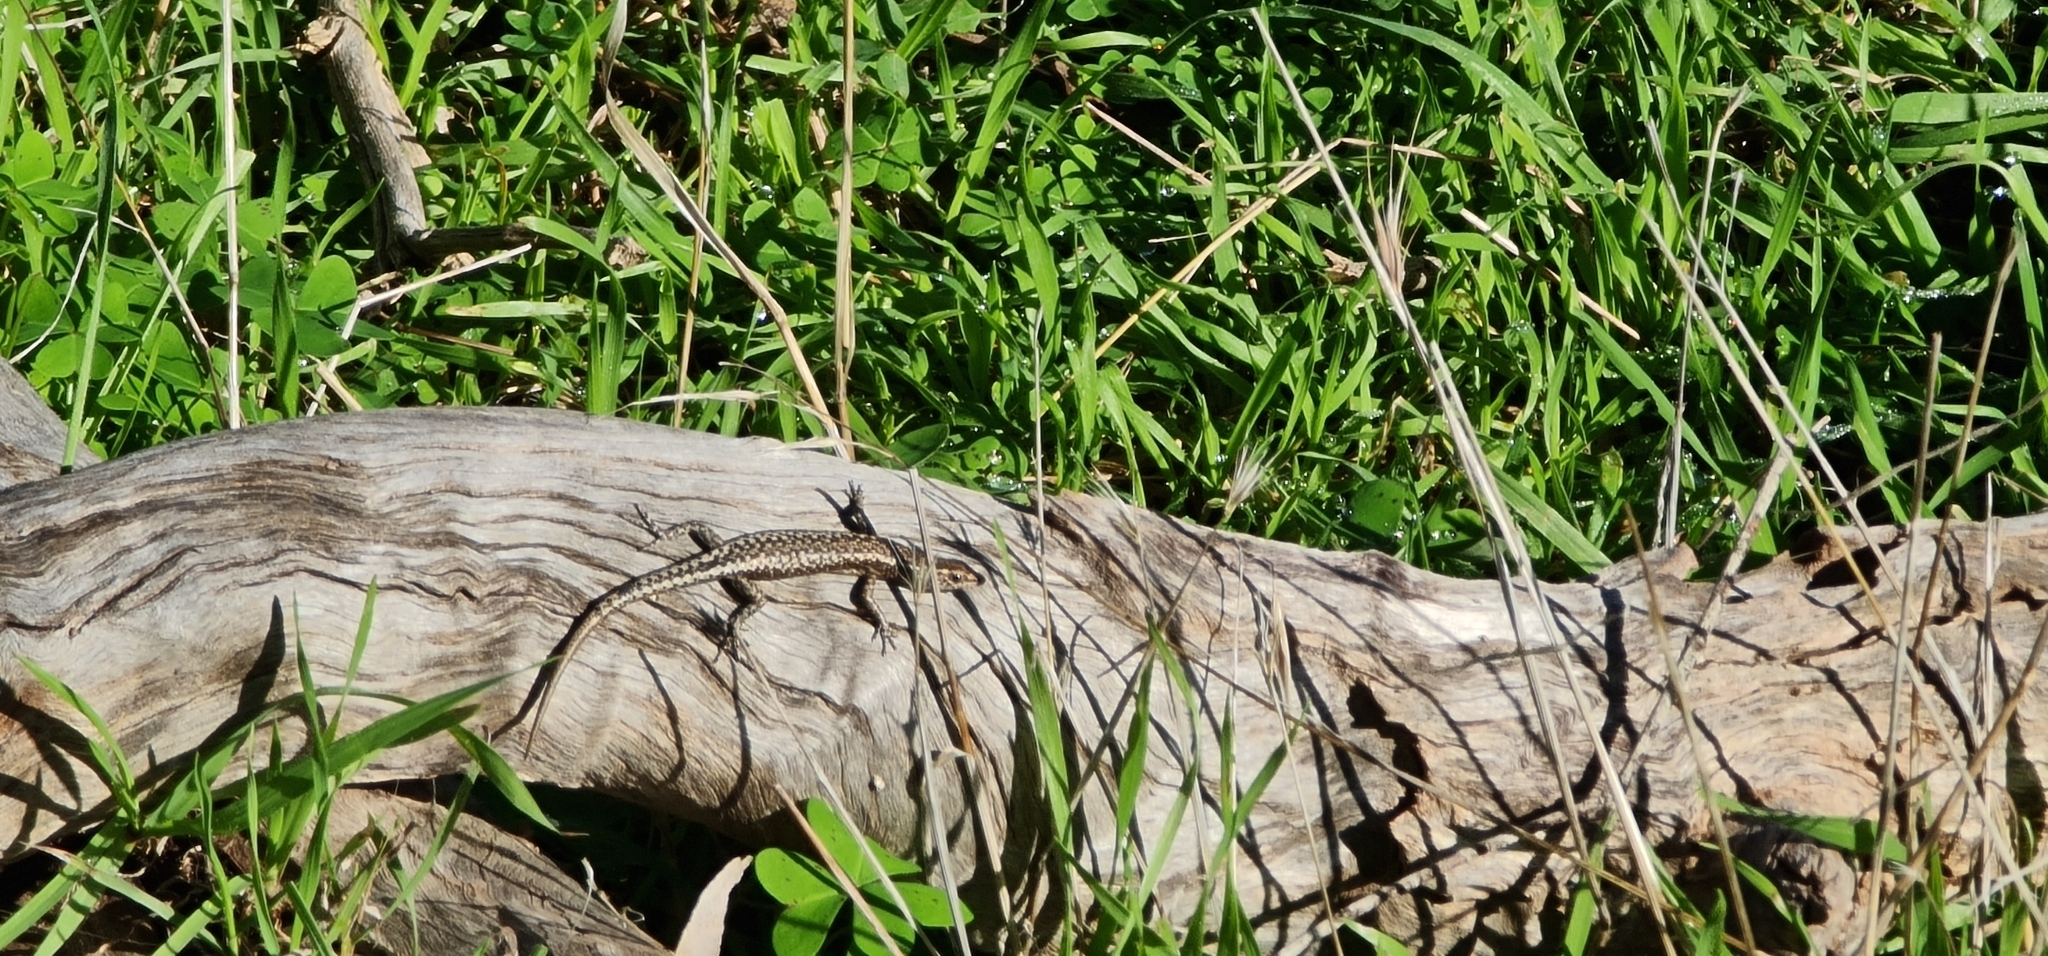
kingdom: Animalia
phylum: Chordata
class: Squamata
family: Scincidae
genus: Cryptoblepharus
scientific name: Cryptoblepharus pannosus
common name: Ragged snake-eyed skink
